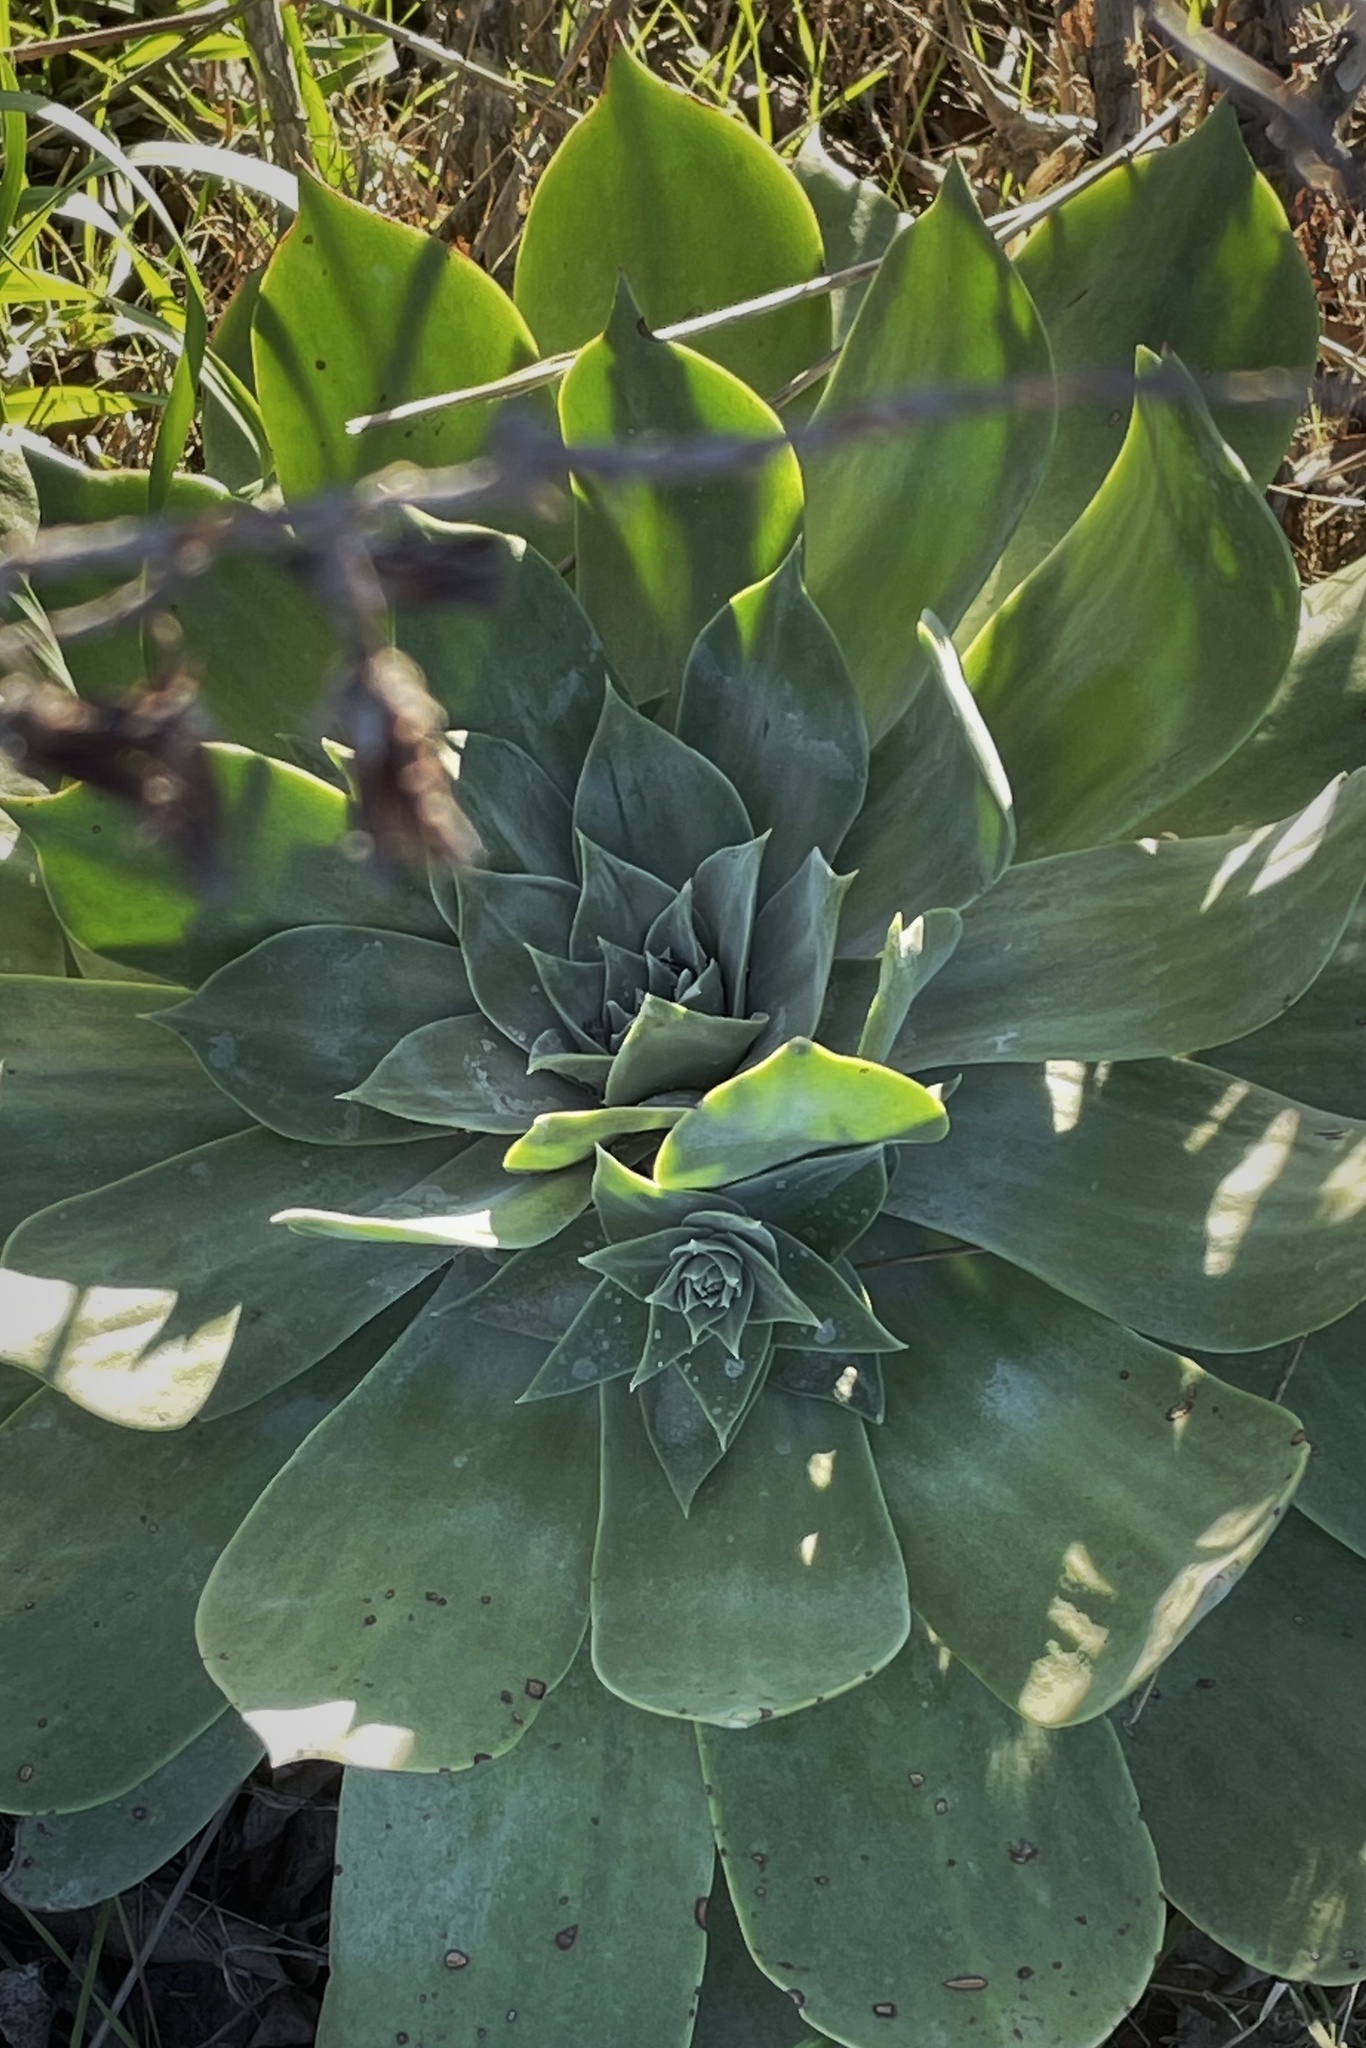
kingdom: Plantae
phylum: Tracheophyta
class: Magnoliopsida
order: Saxifragales
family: Crassulaceae
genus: Dudleya
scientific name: Dudleya pulverulenta
